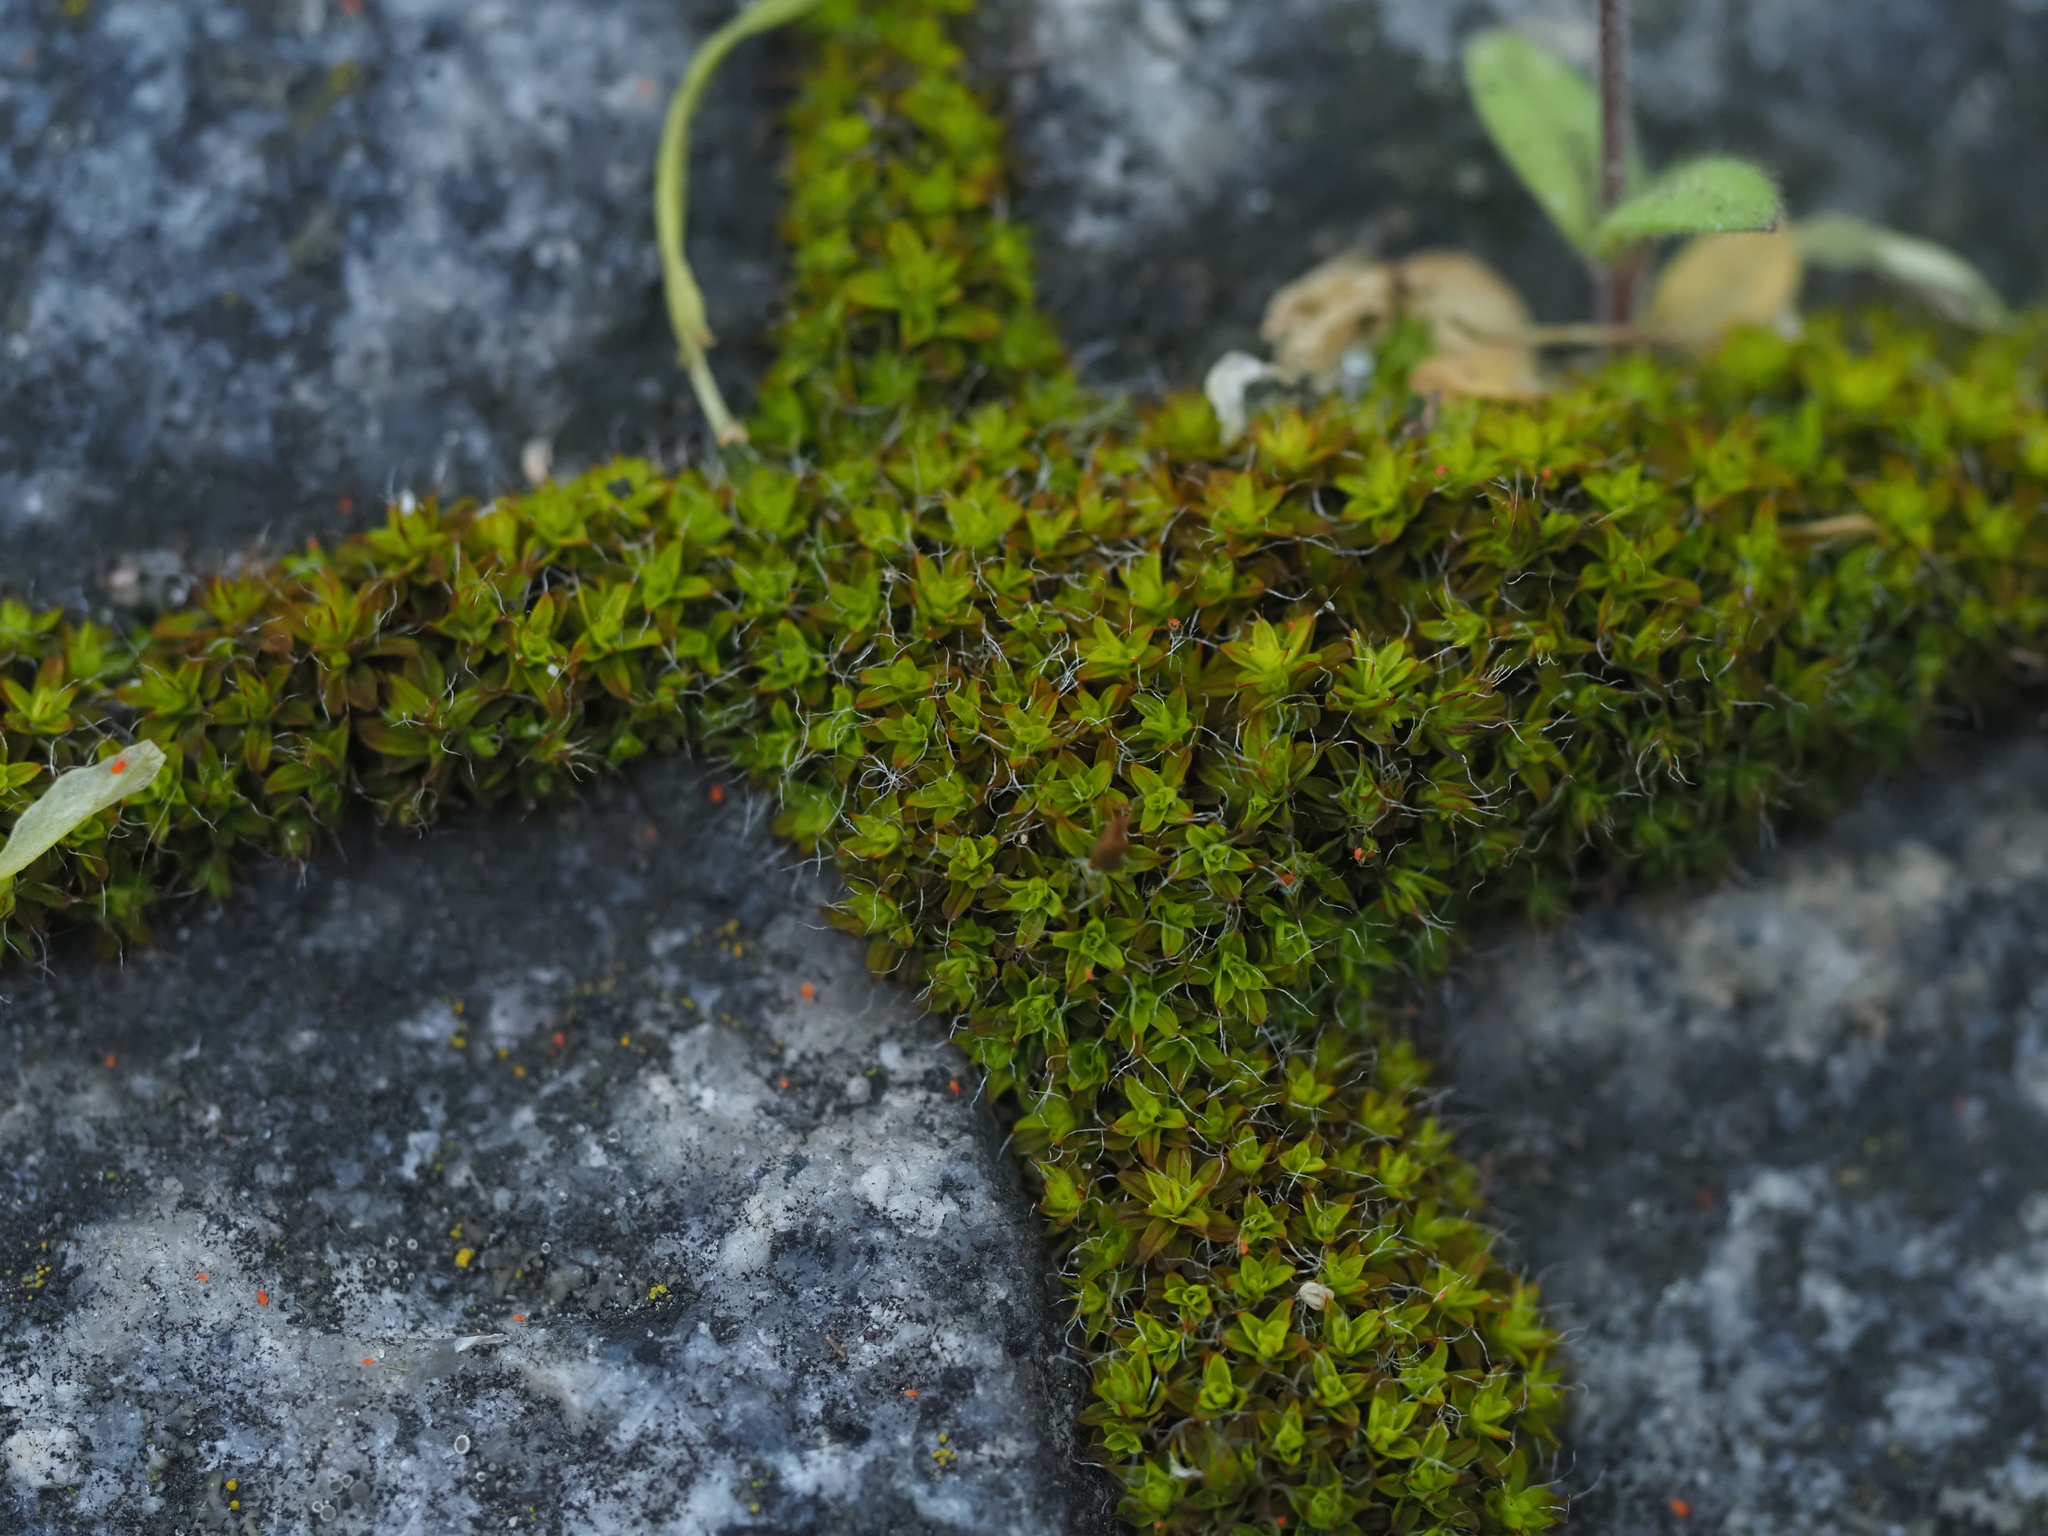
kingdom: Plantae
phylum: Bryophyta
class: Bryopsida
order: Pottiales
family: Pottiaceae
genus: Syntrichia
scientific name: Syntrichia ruralis
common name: Sidewalk screw moss
